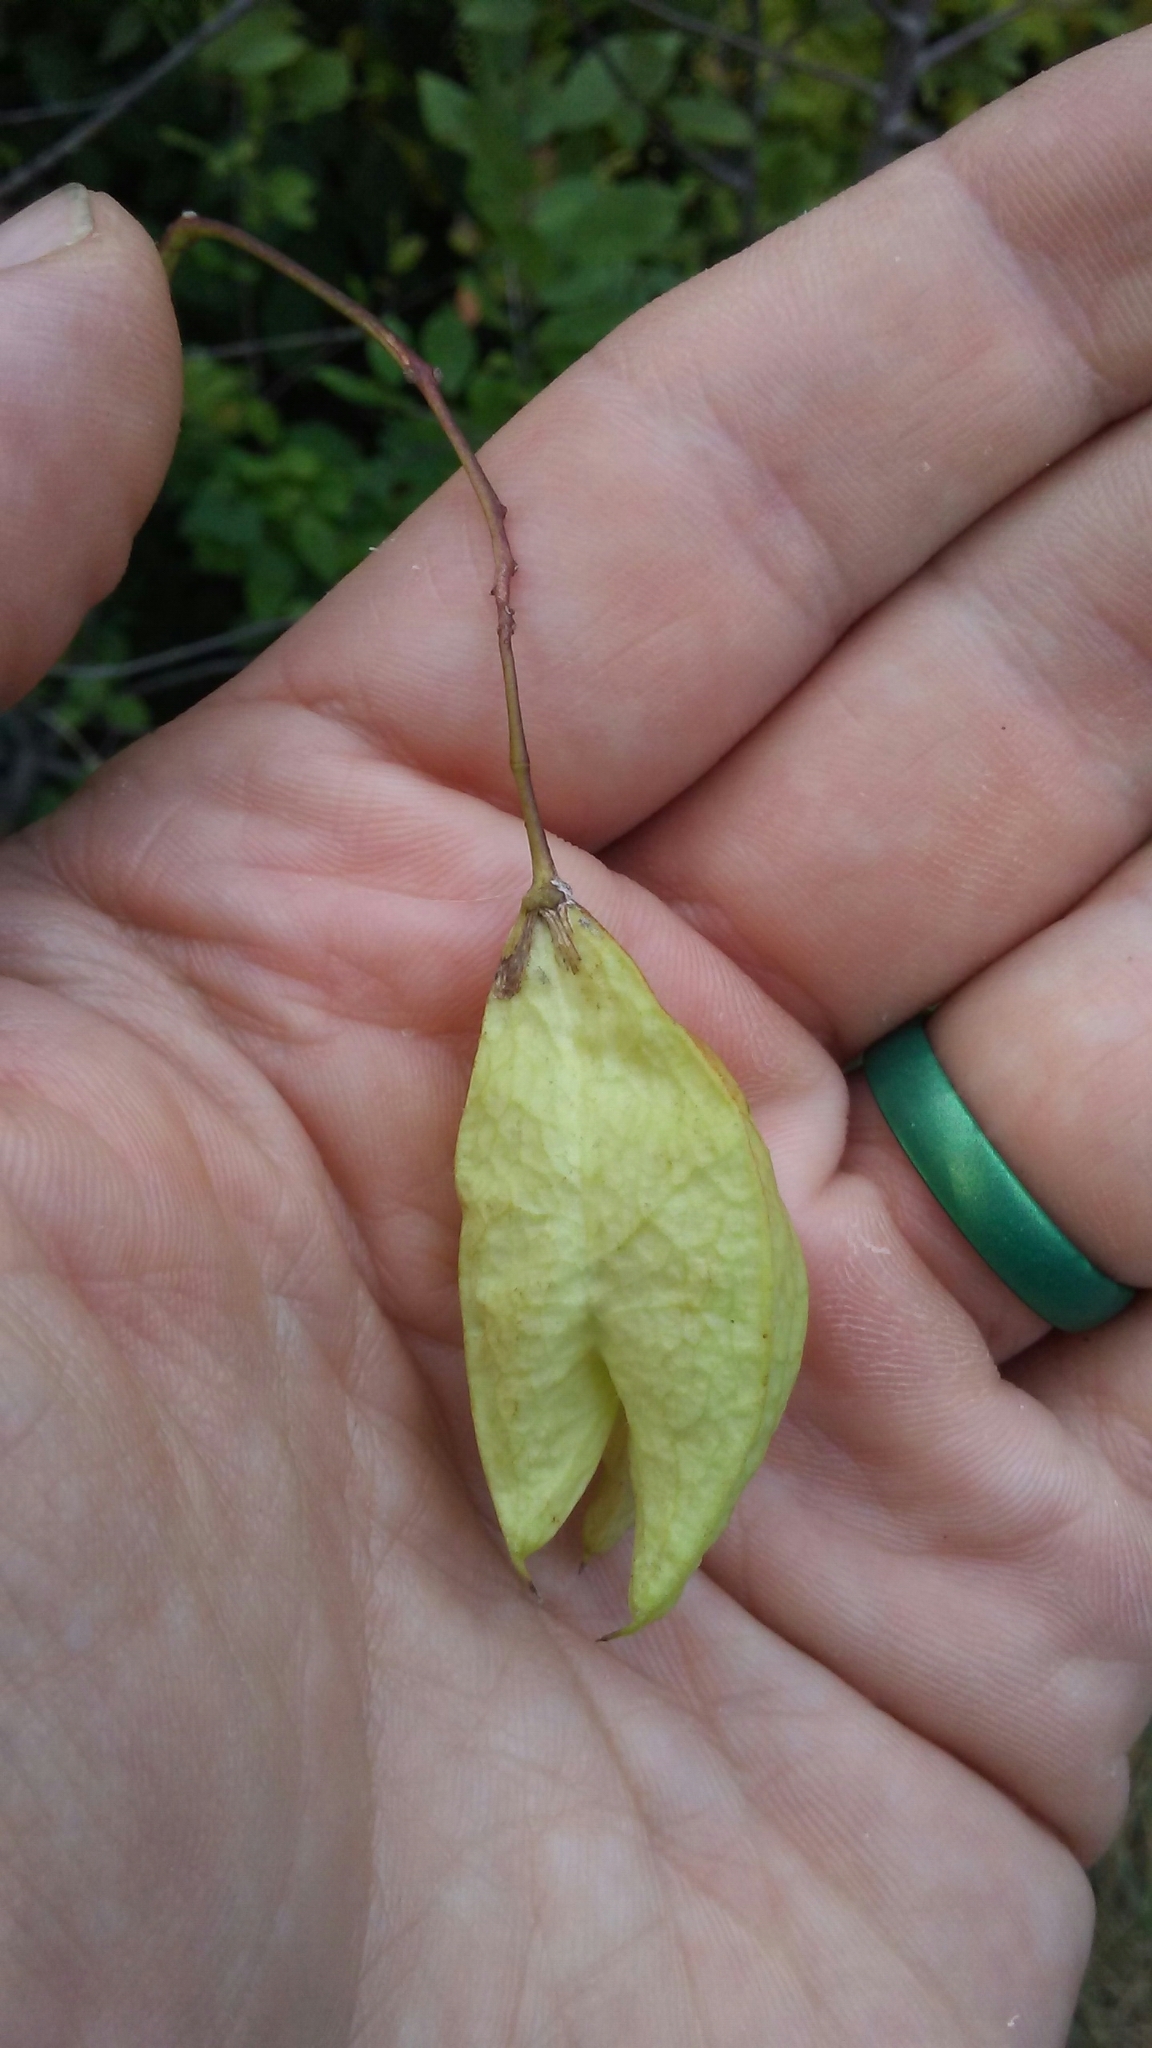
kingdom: Plantae
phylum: Tracheophyta
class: Magnoliopsida
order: Crossosomatales
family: Staphyleaceae
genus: Staphylea
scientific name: Staphylea trifolia
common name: American bladdernut
